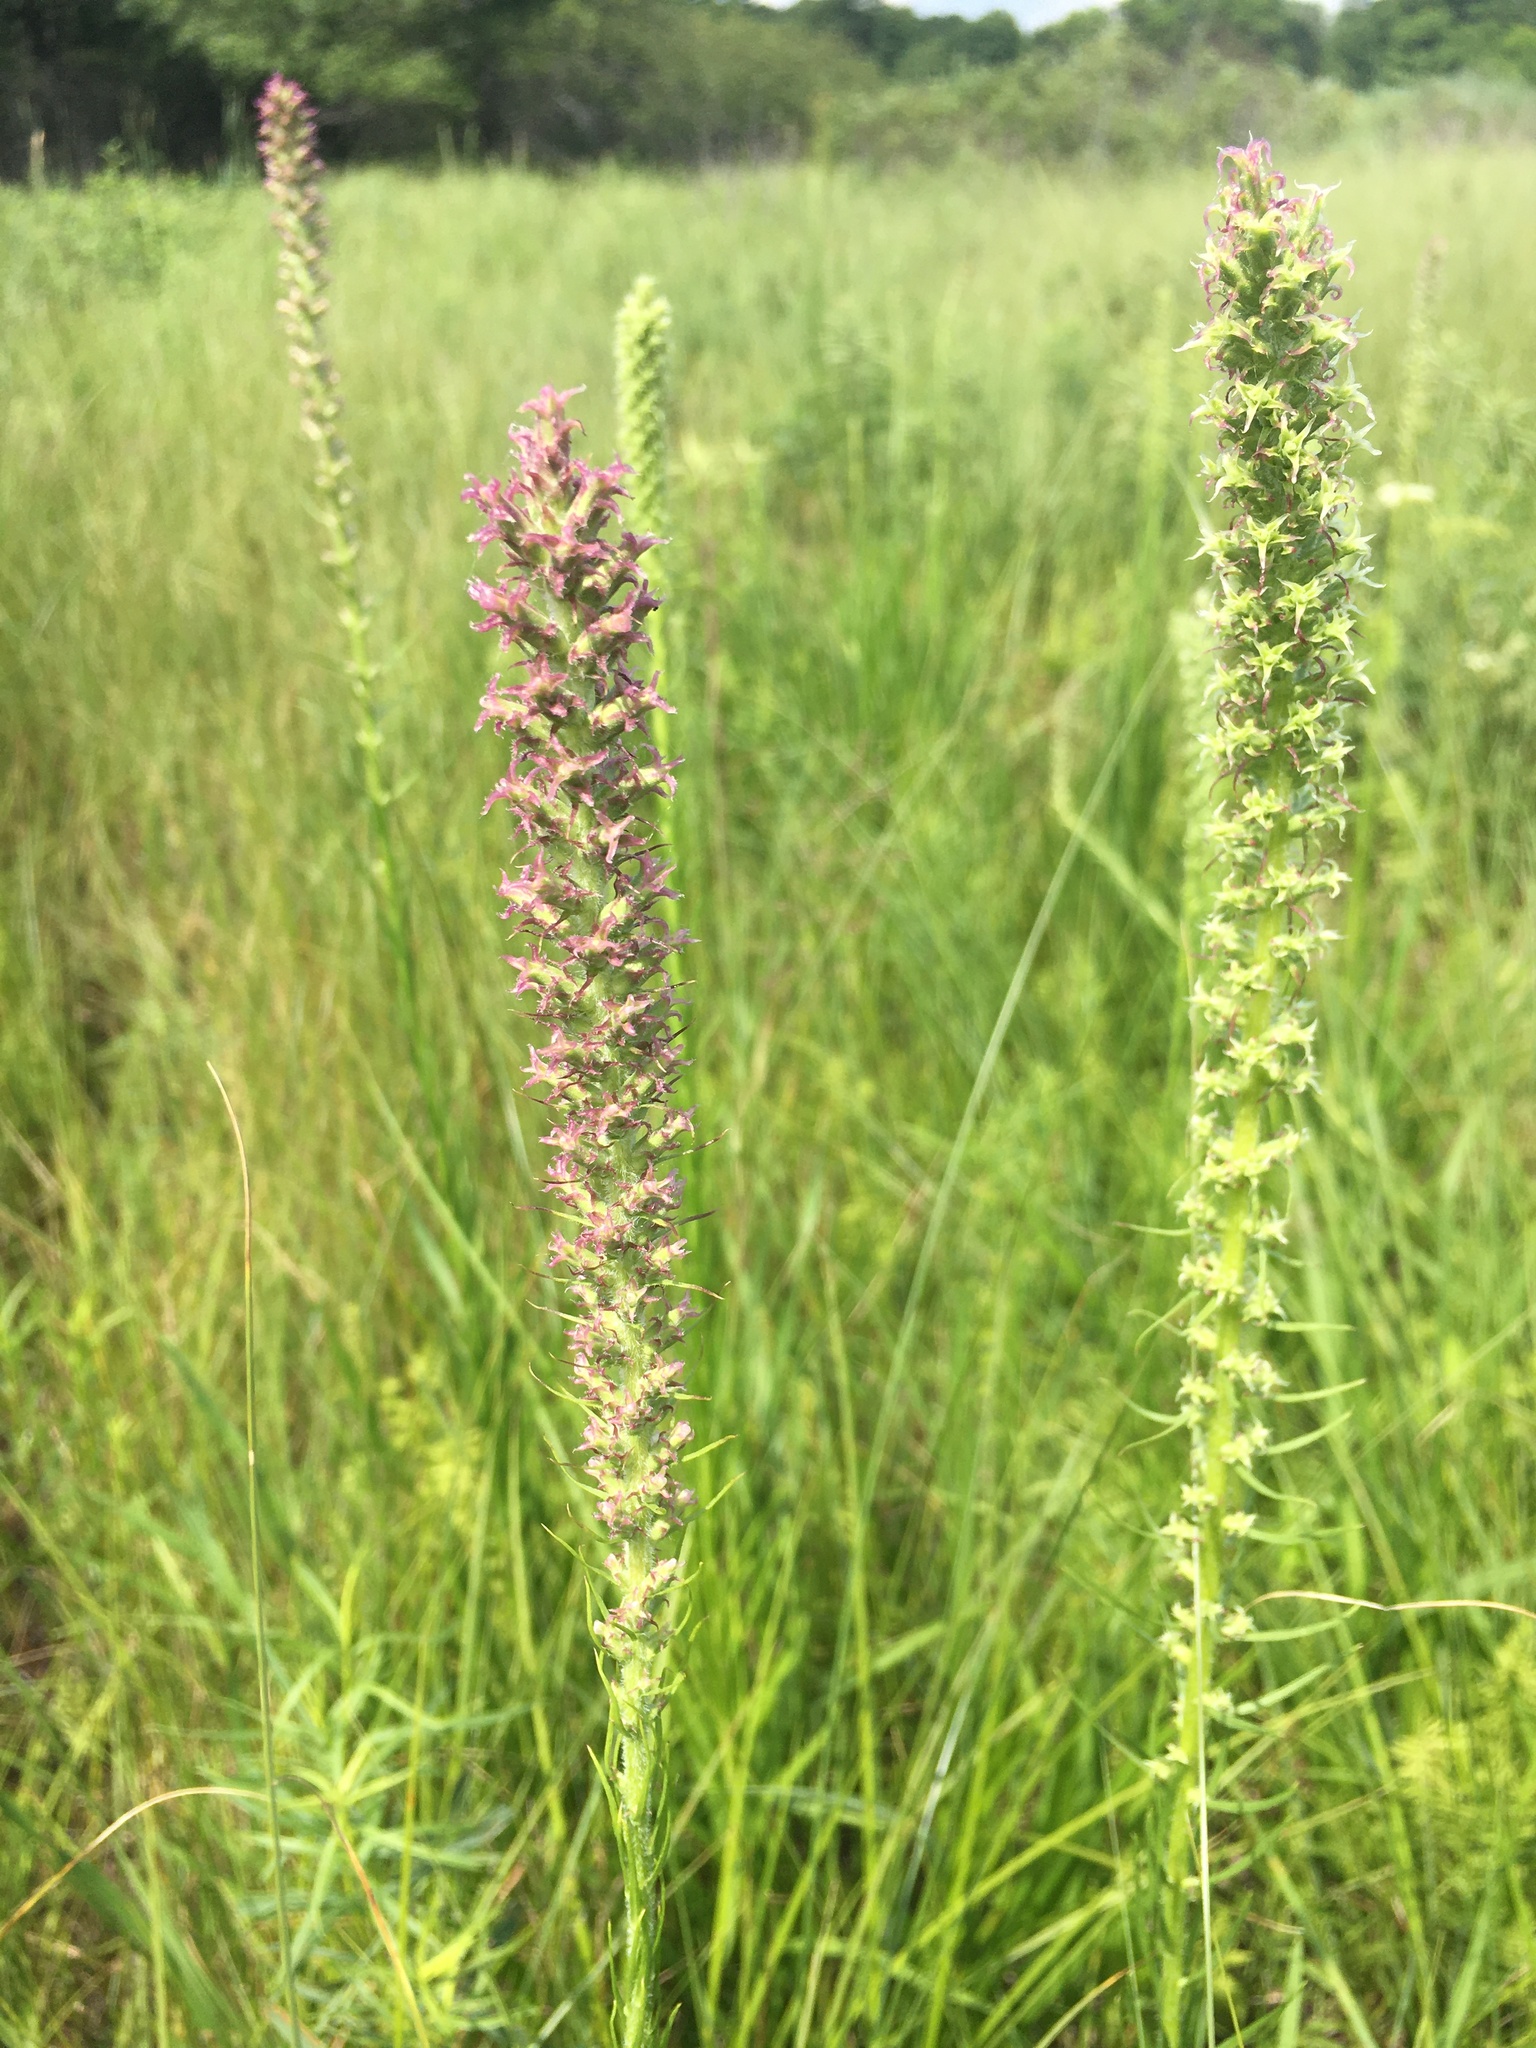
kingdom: Plantae
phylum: Tracheophyta
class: Magnoliopsida
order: Asterales
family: Asteraceae
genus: Liatris
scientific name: Liatris pycnostachya
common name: Cattail gayfeather
